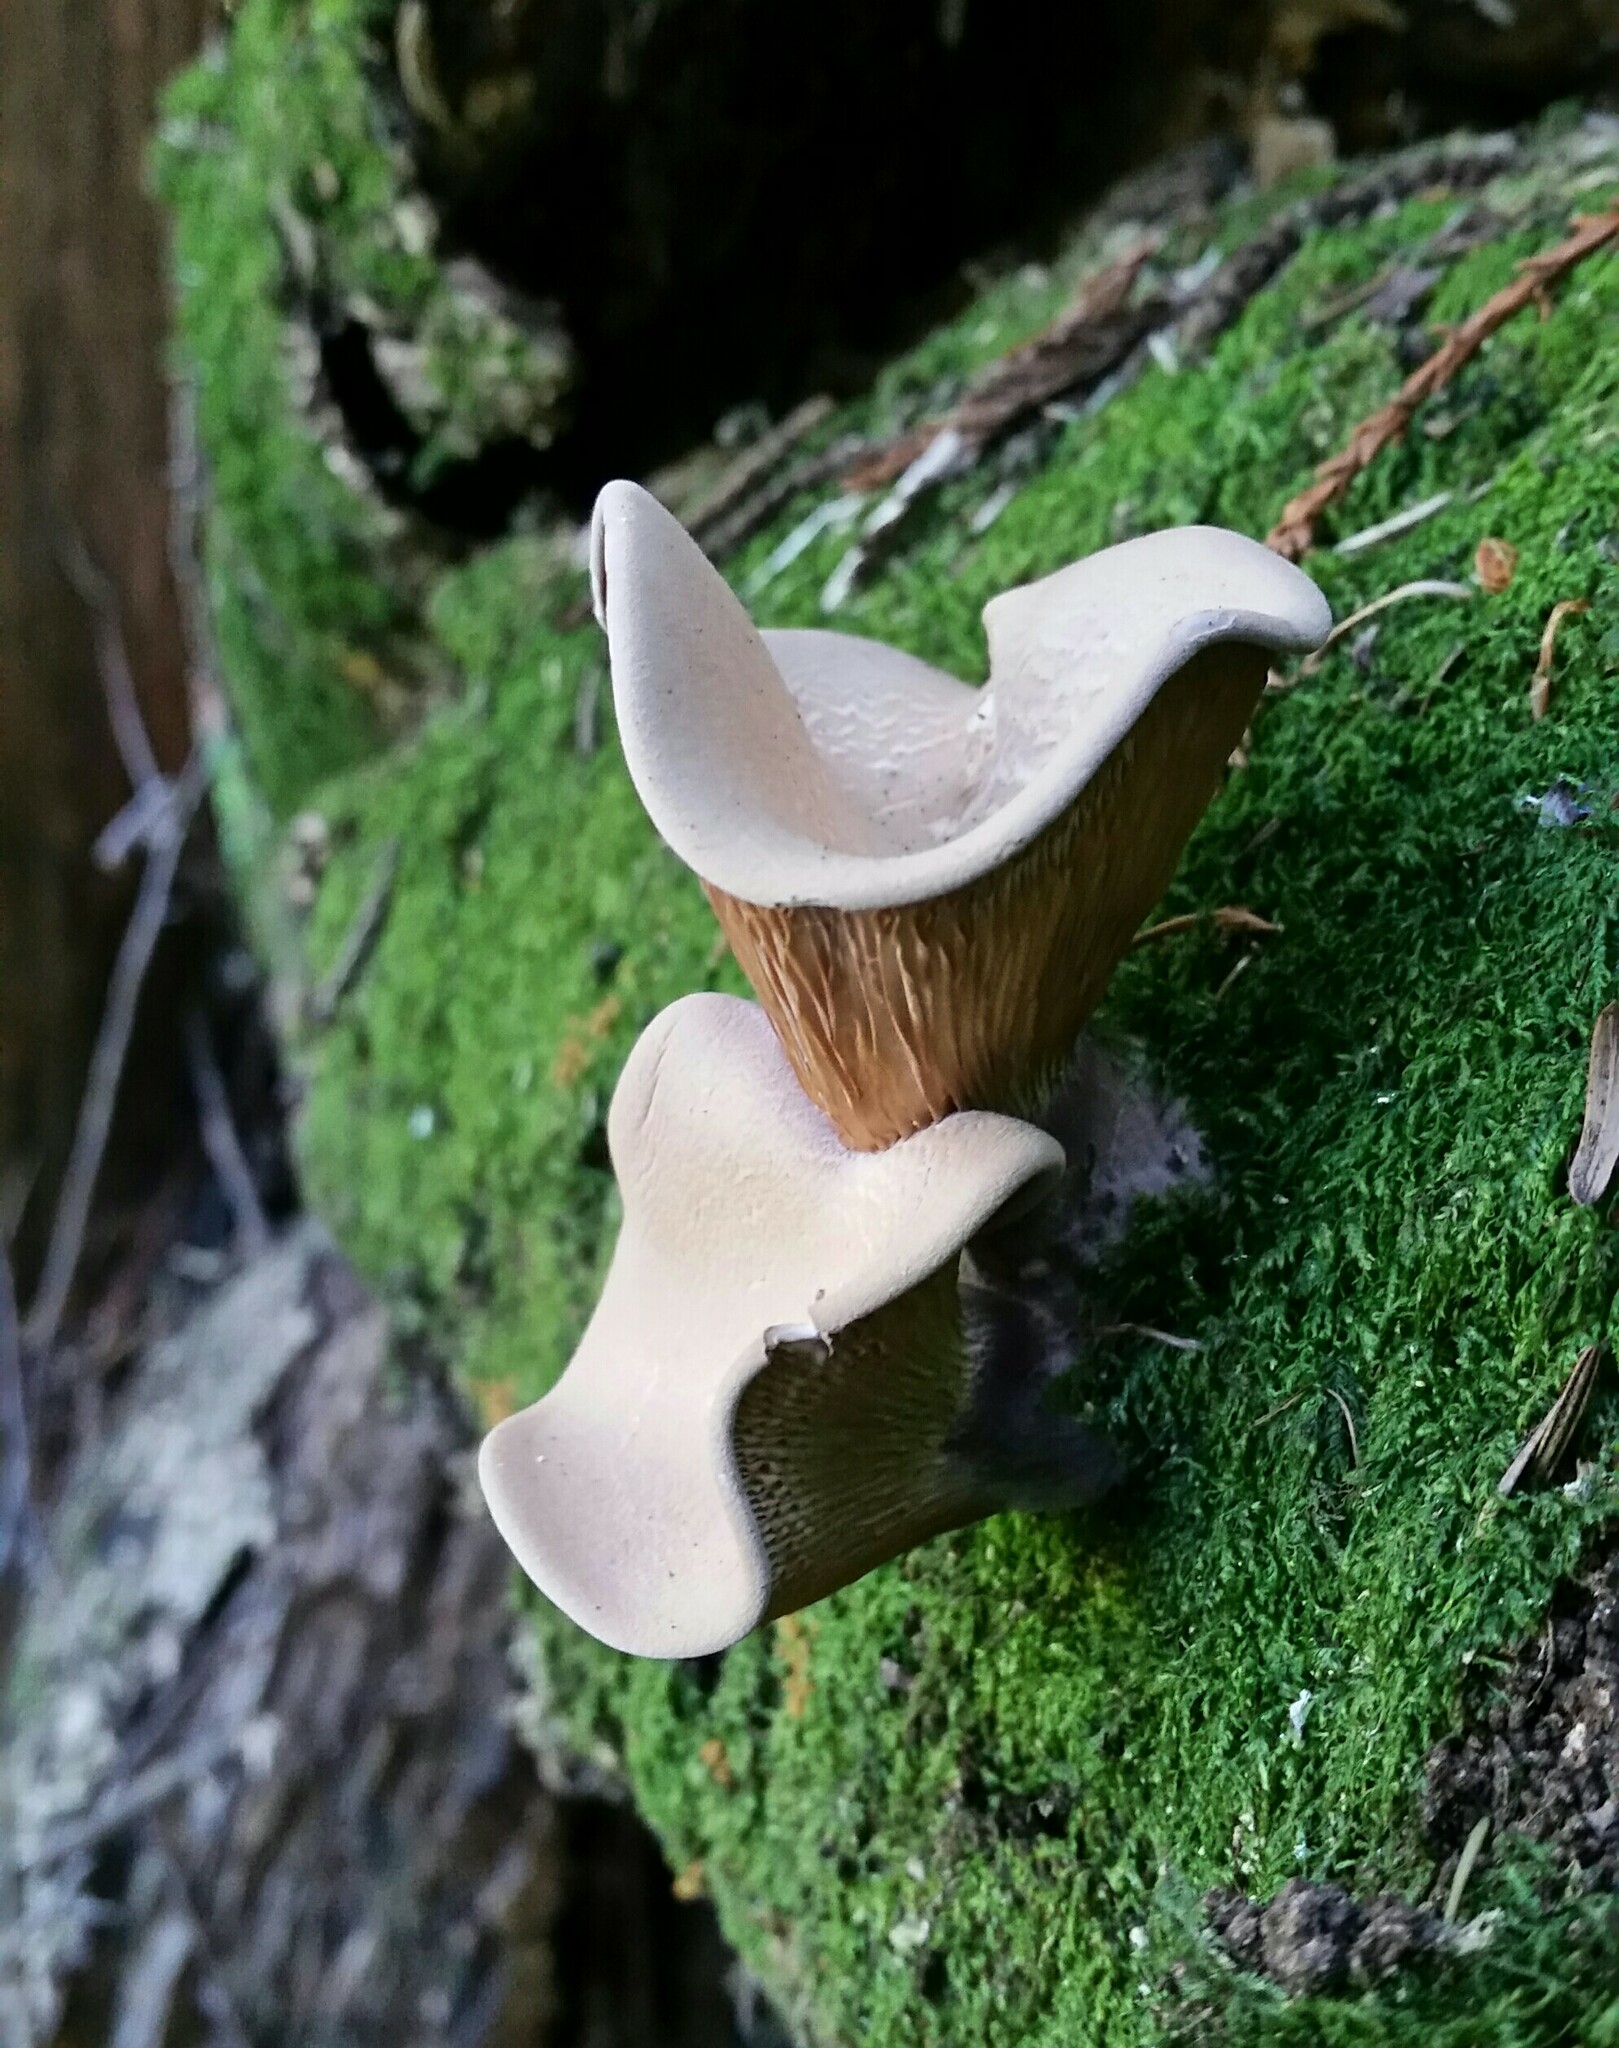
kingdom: Fungi
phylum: Basidiomycota
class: Agaricomycetes
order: Polyporales
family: Panaceae
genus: Panus
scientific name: Panus conchatus
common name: Lilac oysterling
